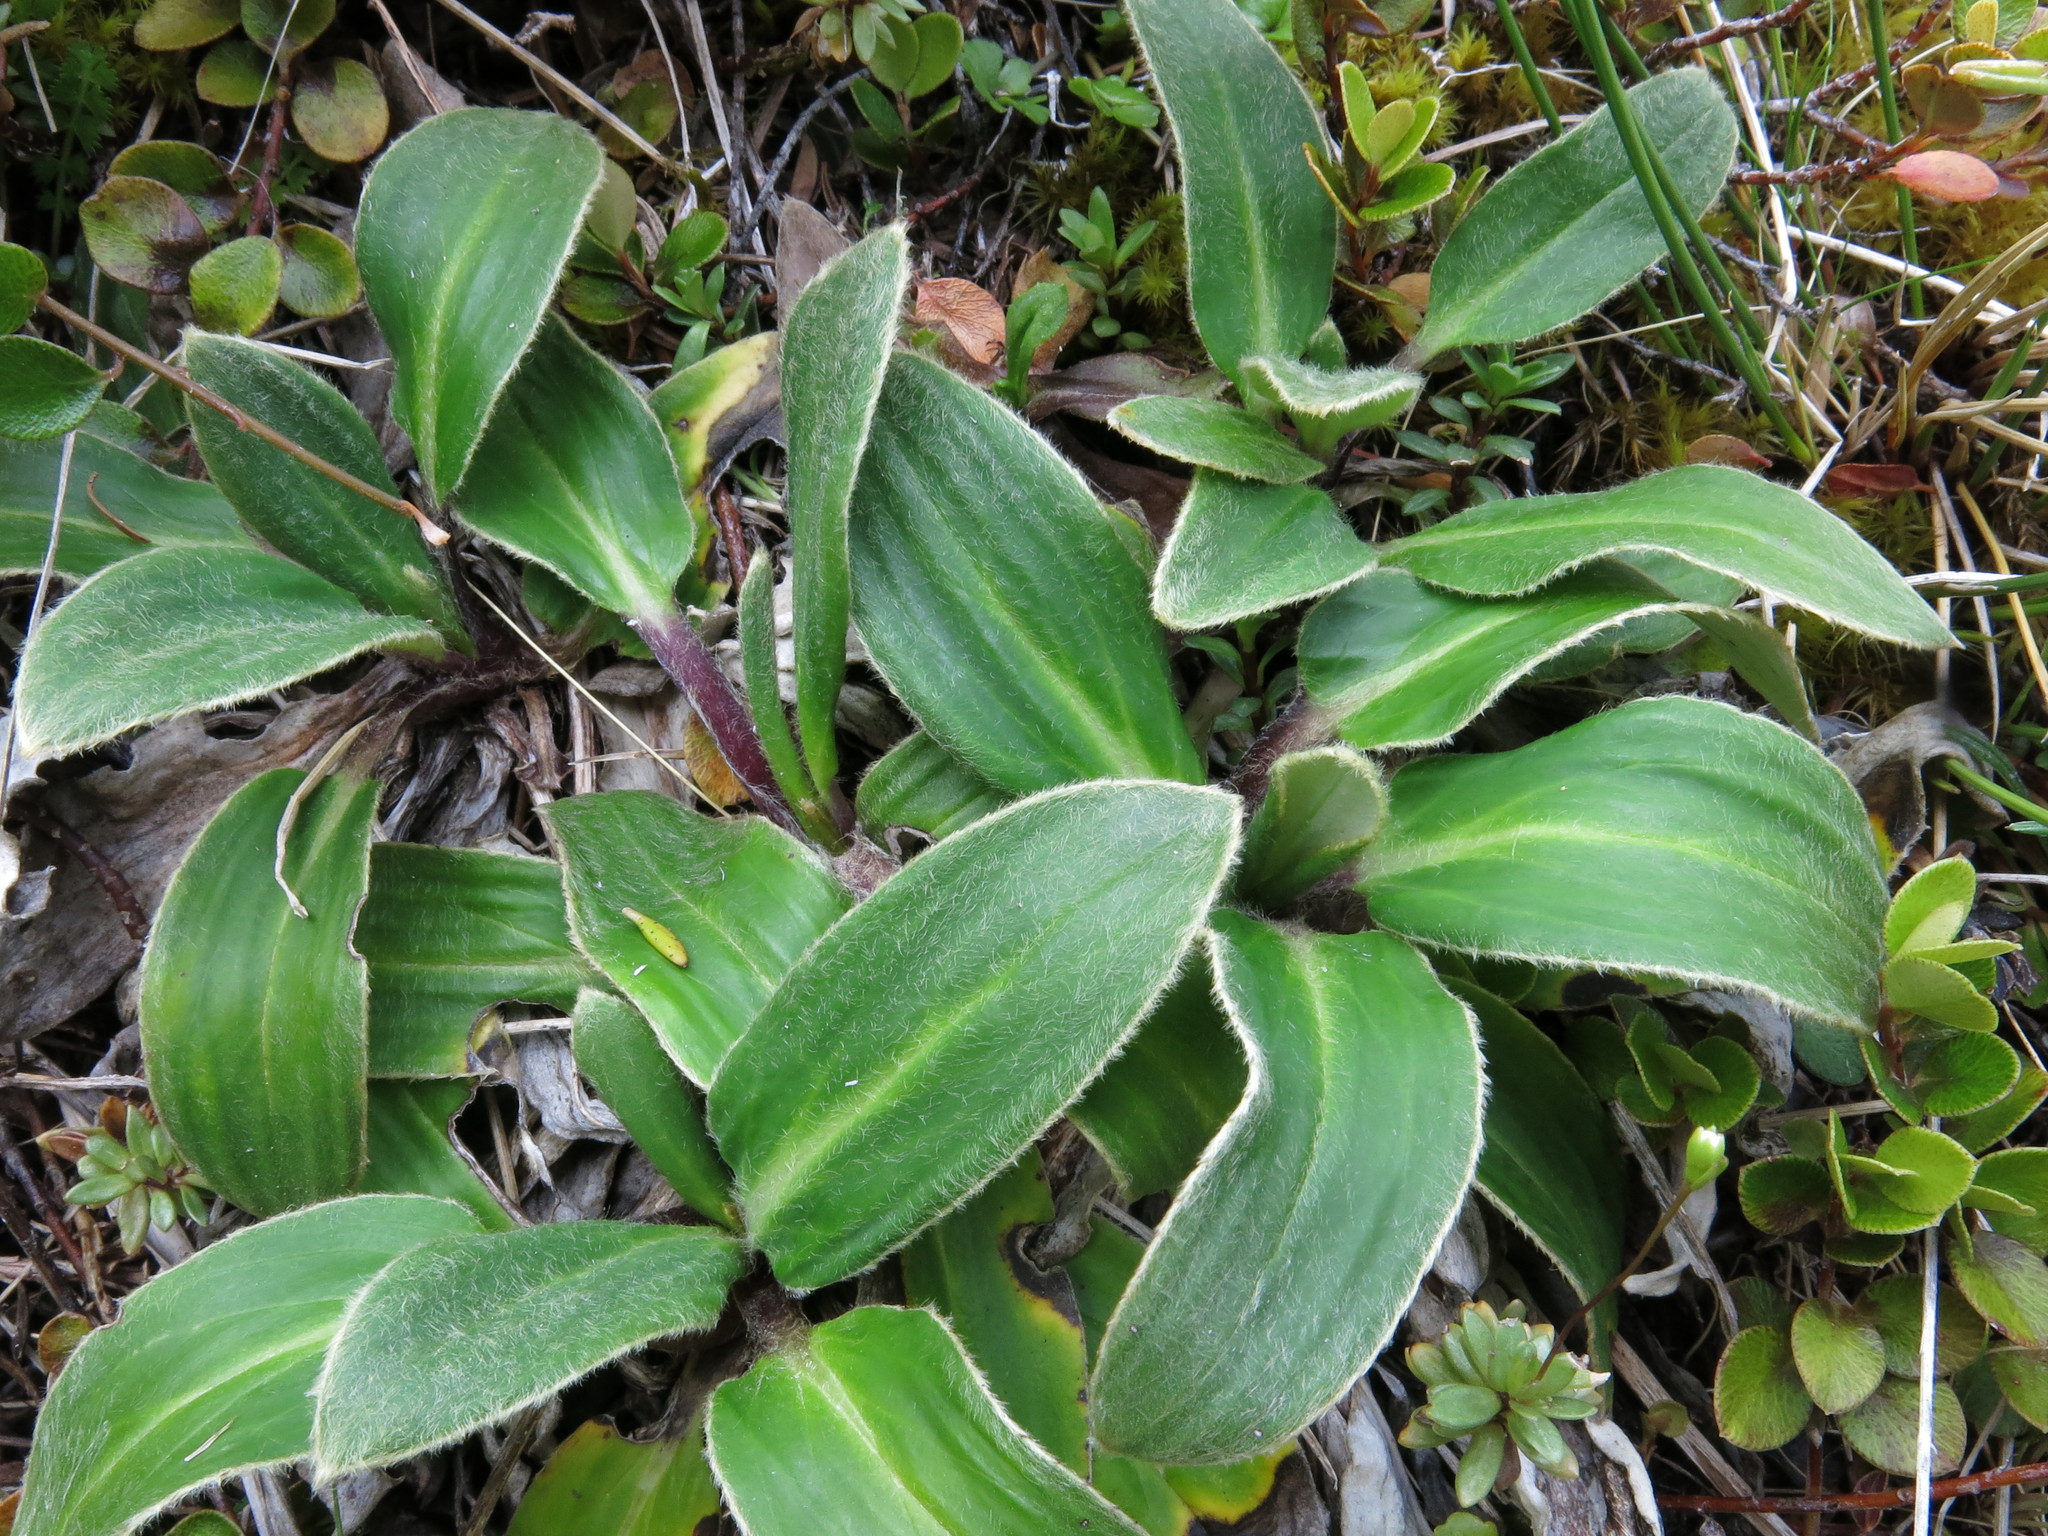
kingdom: Plantae
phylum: Tracheophyta
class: Magnoliopsida
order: Asterales
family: Asteraceae
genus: Celmisia
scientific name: Celmisia verbascifolia
